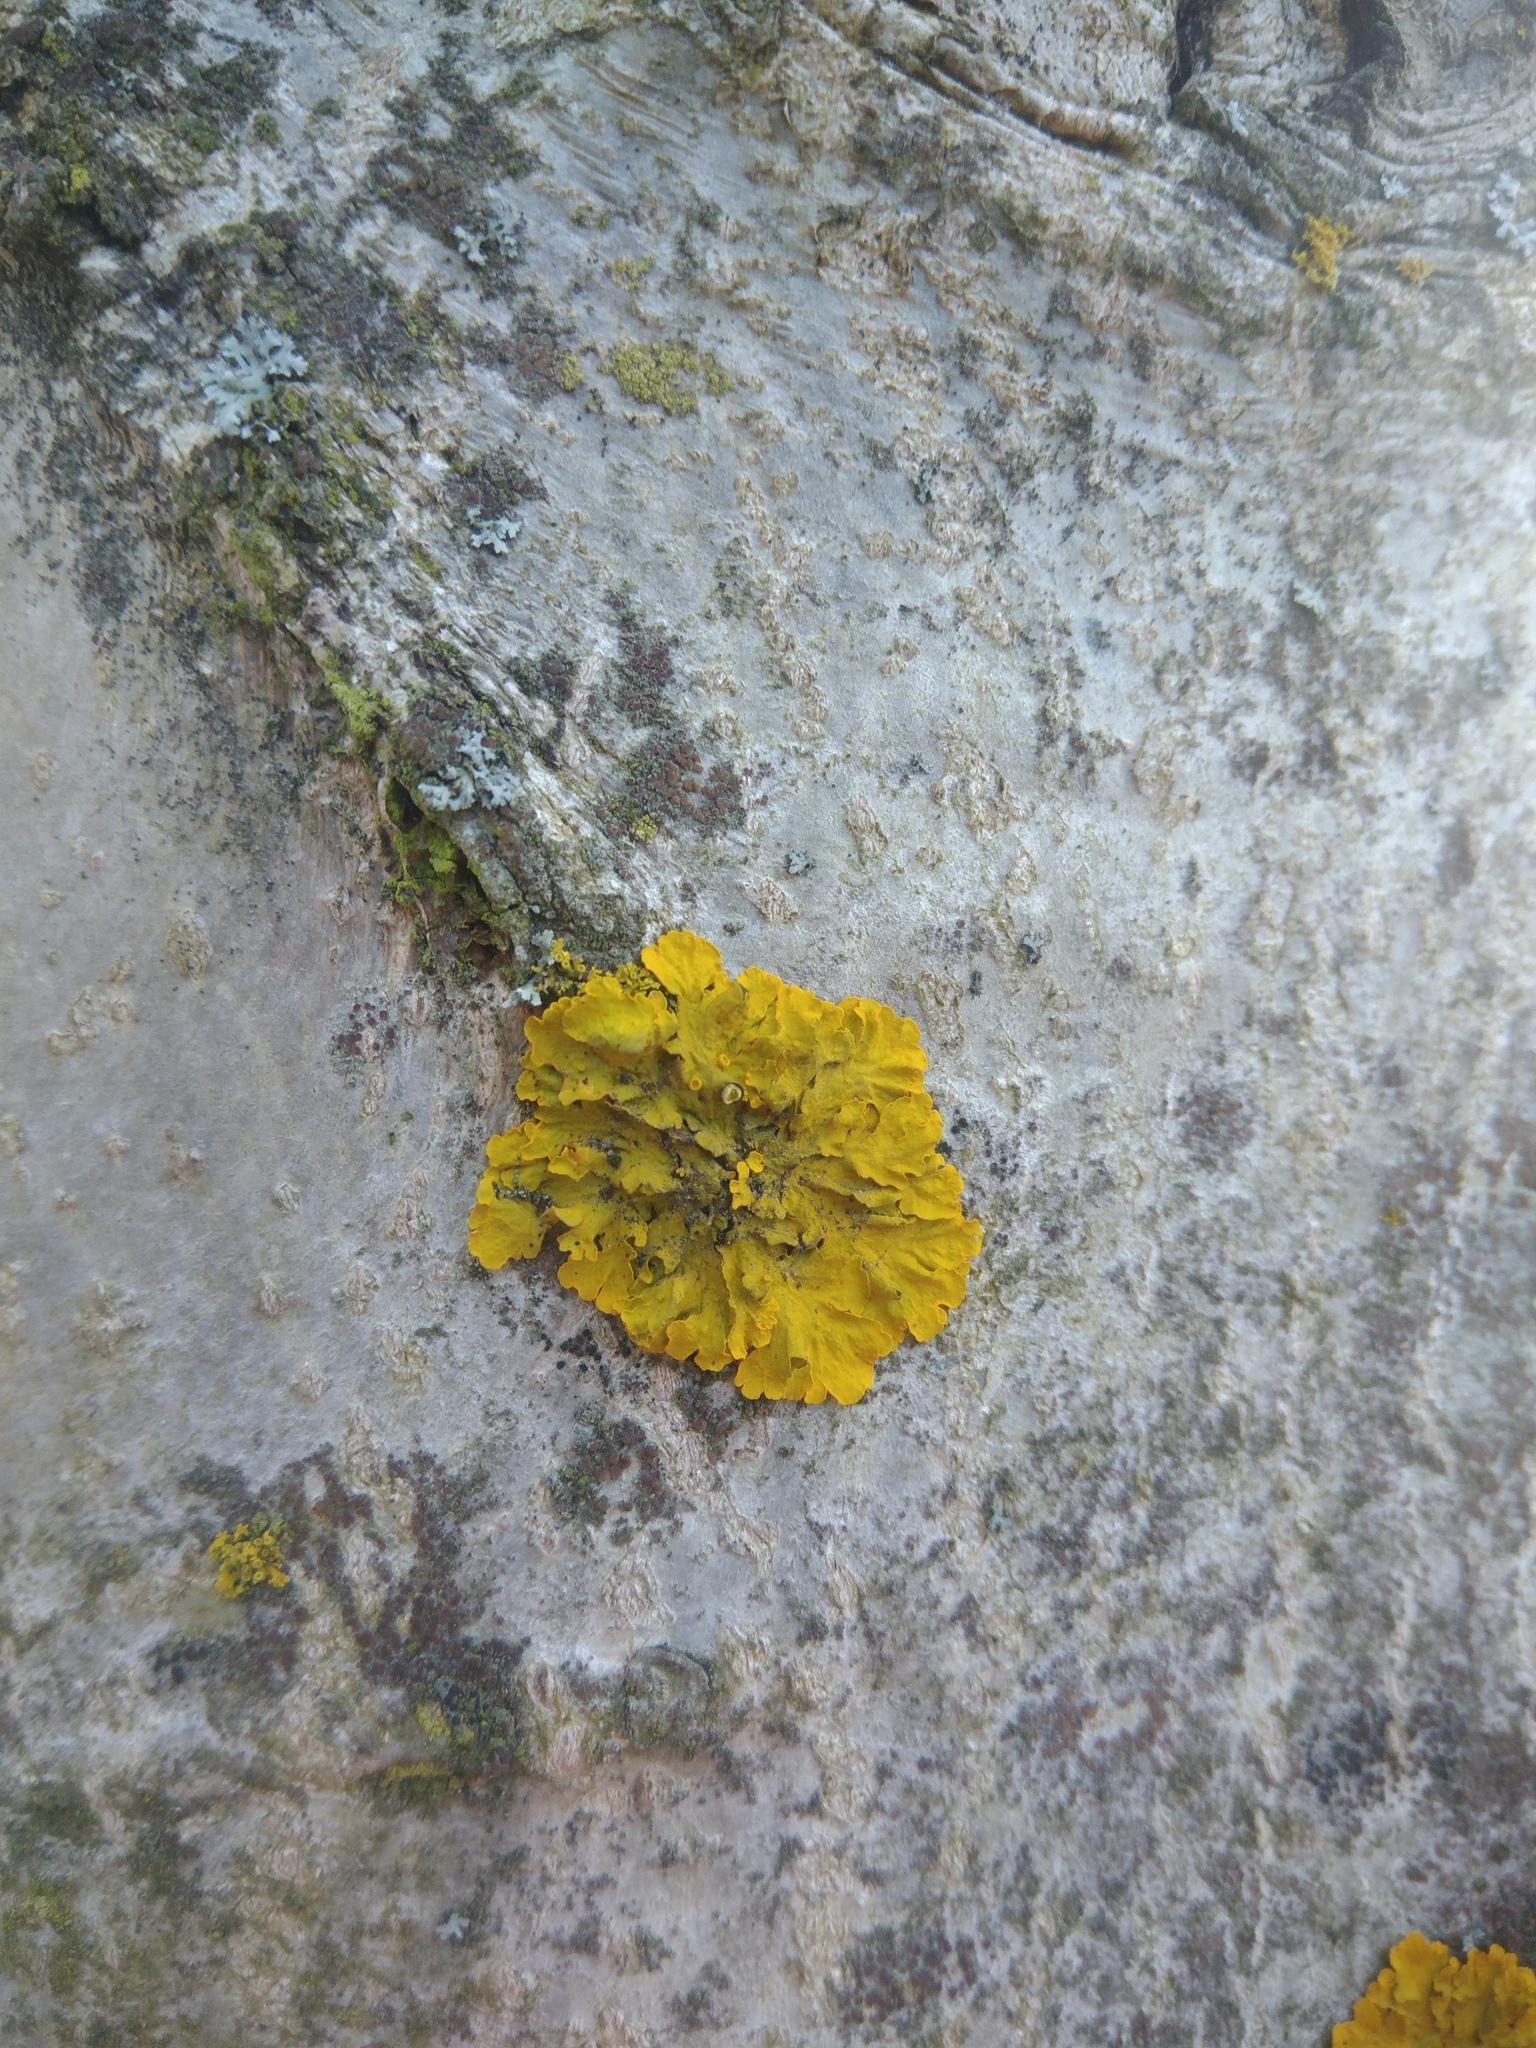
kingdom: Fungi
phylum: Ascomycota
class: Lecanoromycetes
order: Teloschistales
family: Teloschistaceae
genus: Xanthoria
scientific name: Xanthoria parietina
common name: Common orange lichen
